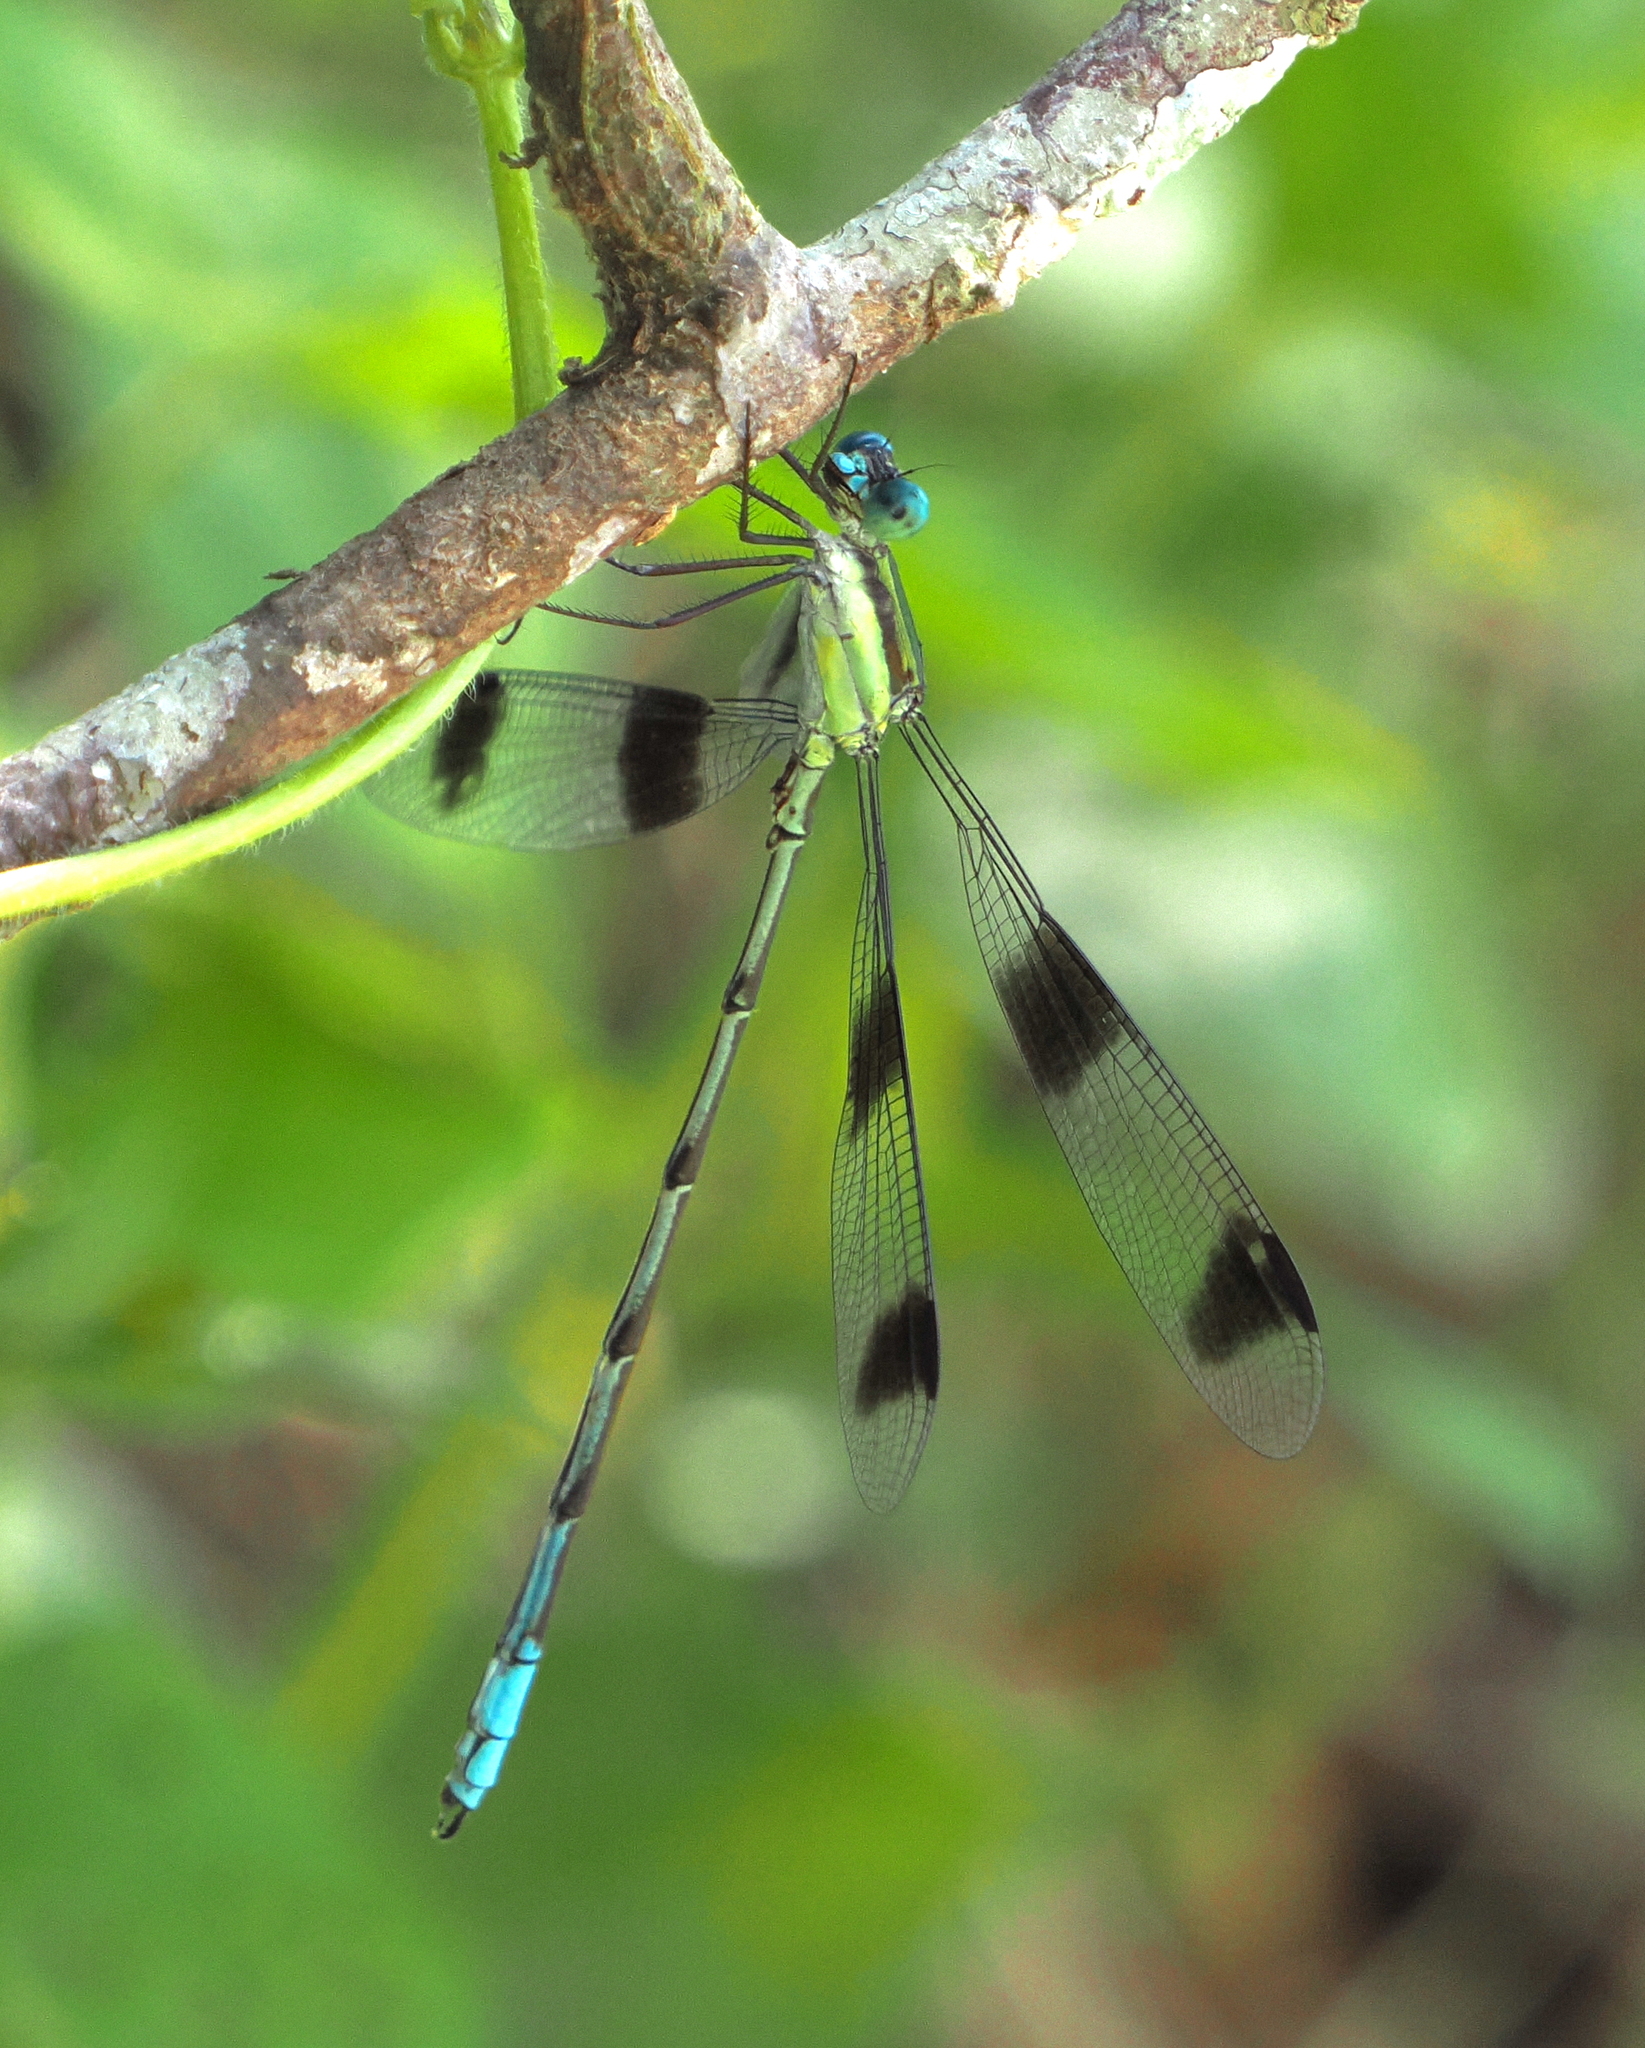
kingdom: Animalia
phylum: Arthropoda
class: Insecta
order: Odonata
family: Lestidae
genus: Orolestes
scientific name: Orolestes octomaculatus
